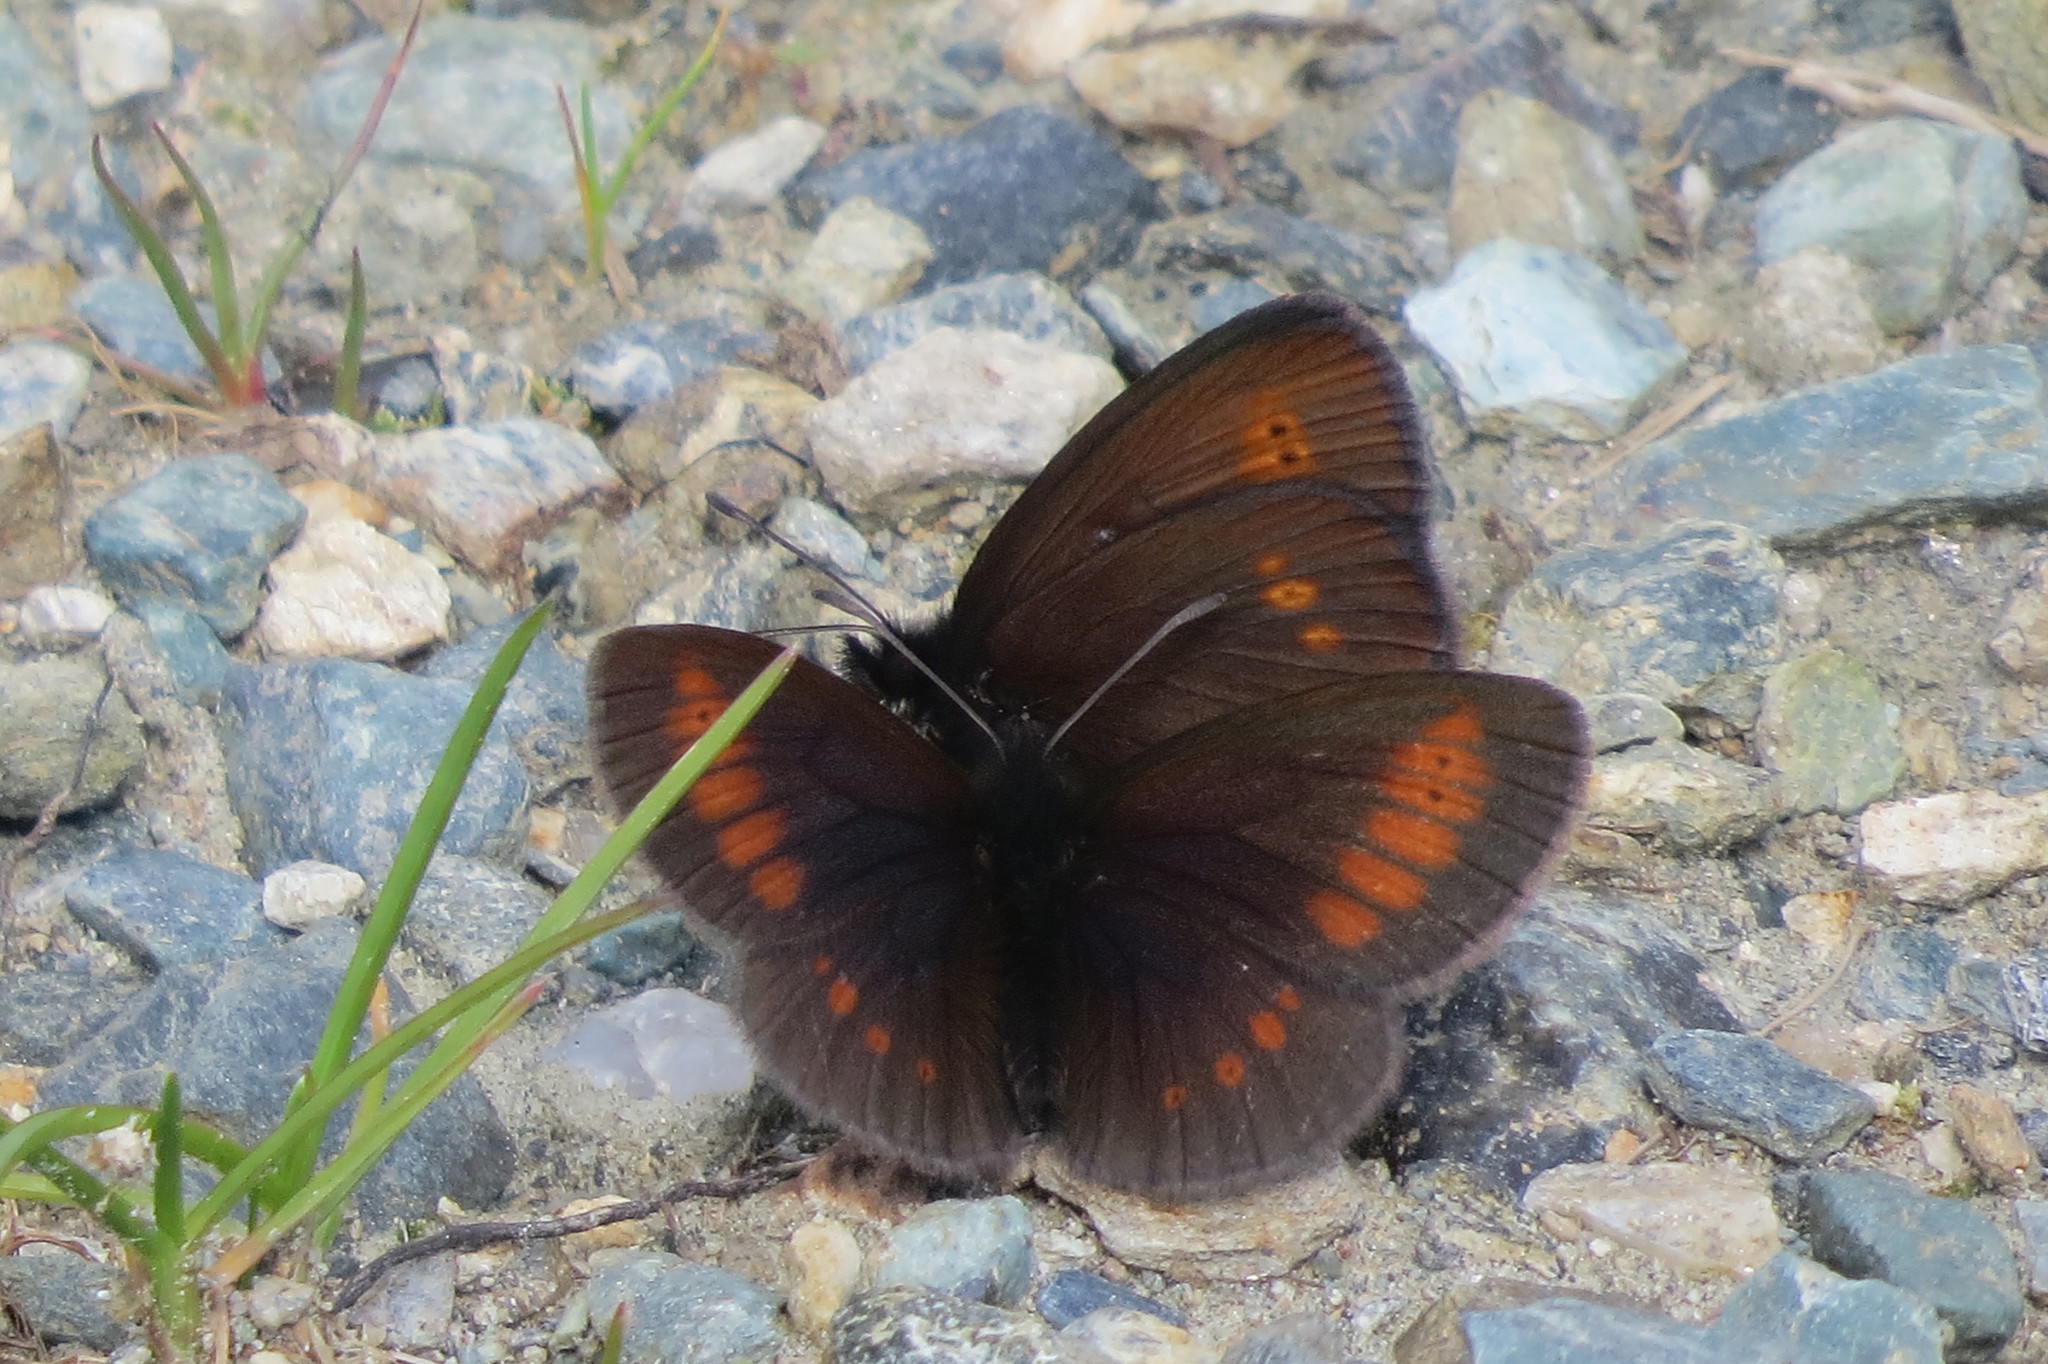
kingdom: Animalia
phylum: Arthropoda
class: Insecta
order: Lepidoptera
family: Nymphalidae
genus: Erebia
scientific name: Erebia melampus
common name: Lesser mountain ringlet
